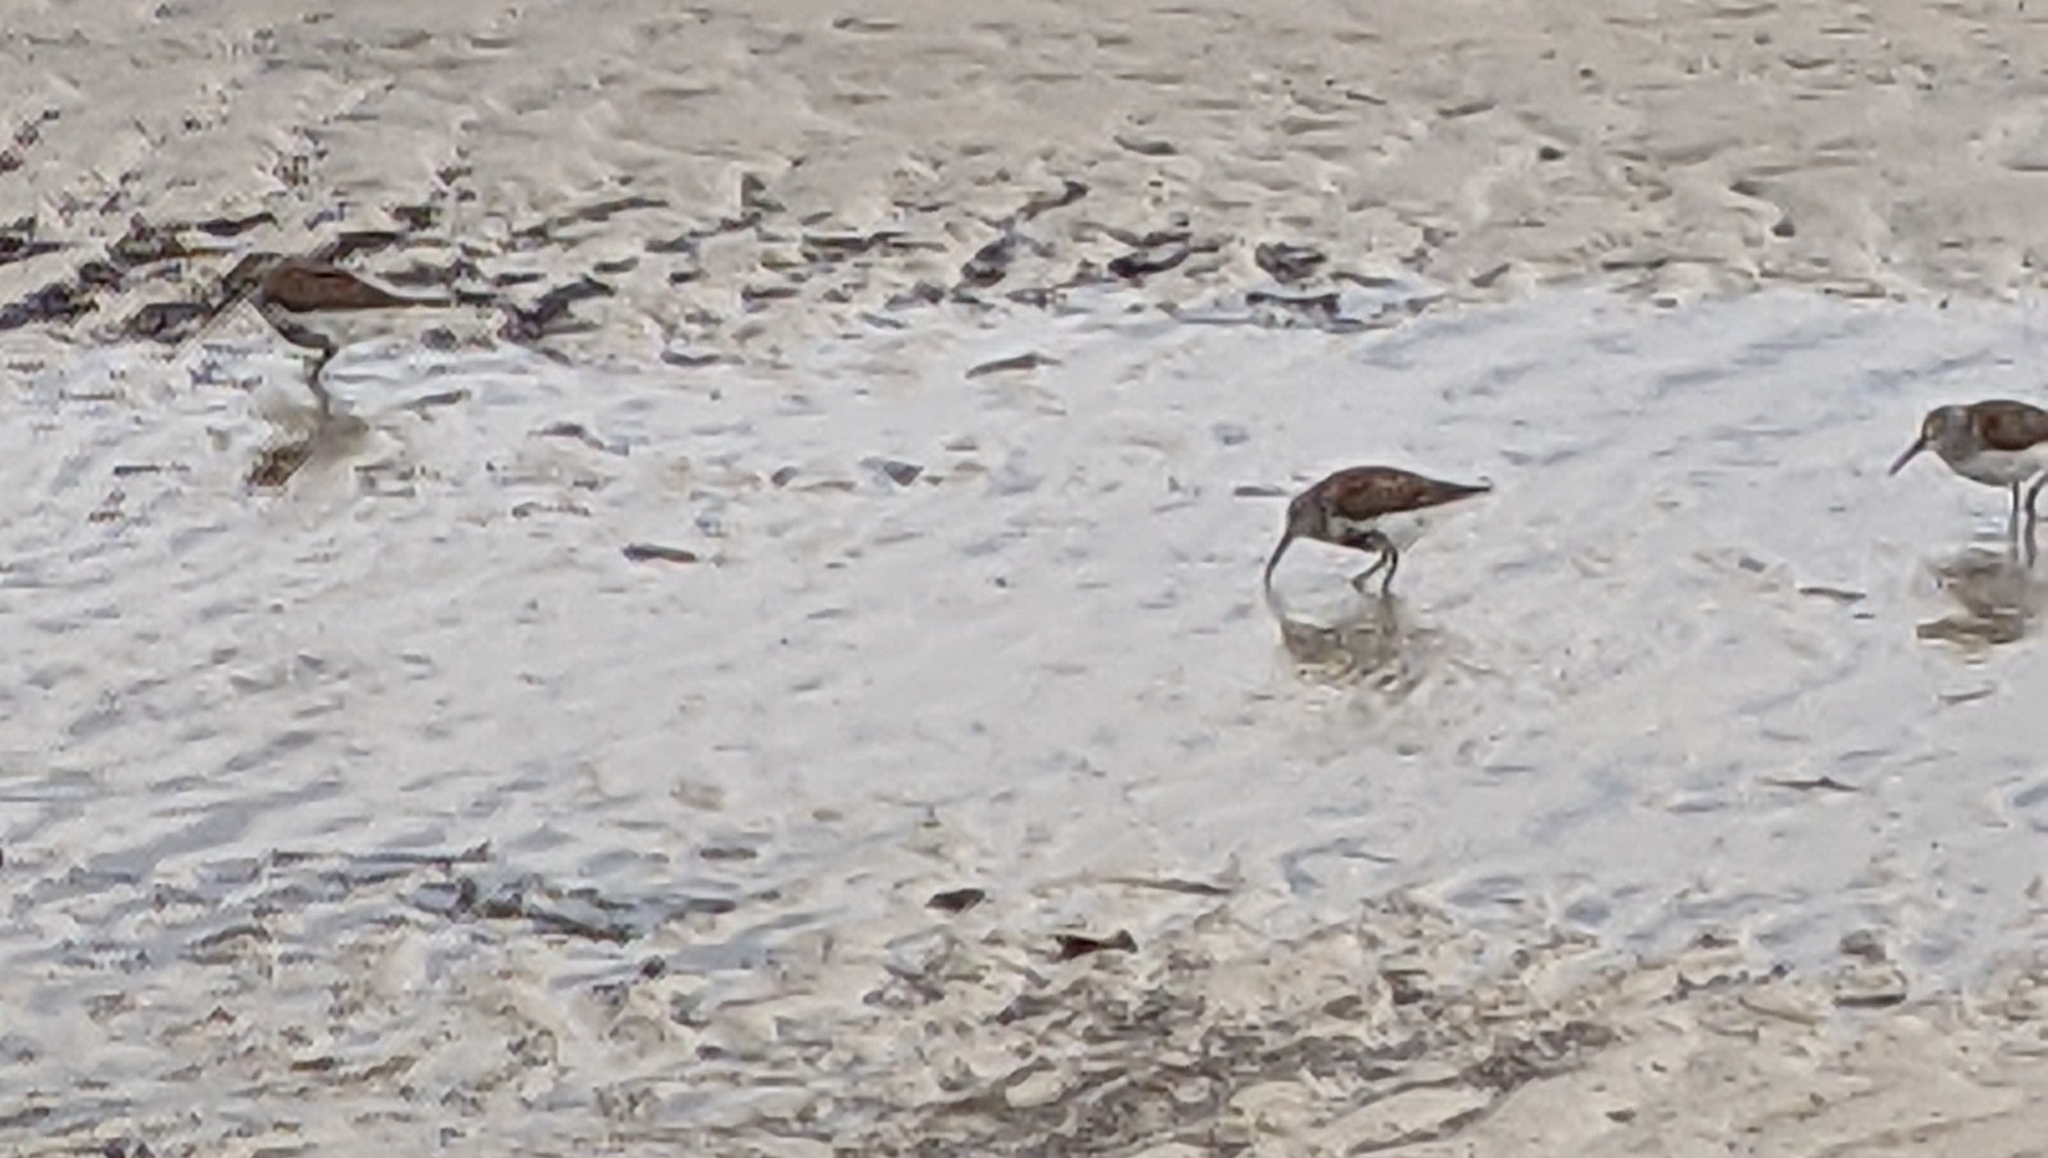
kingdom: Animalia
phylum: Chordata
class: Aves
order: Charadriiformes
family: Scolopacidae
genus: Calidris
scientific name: Calidris alpina
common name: Dunlin
